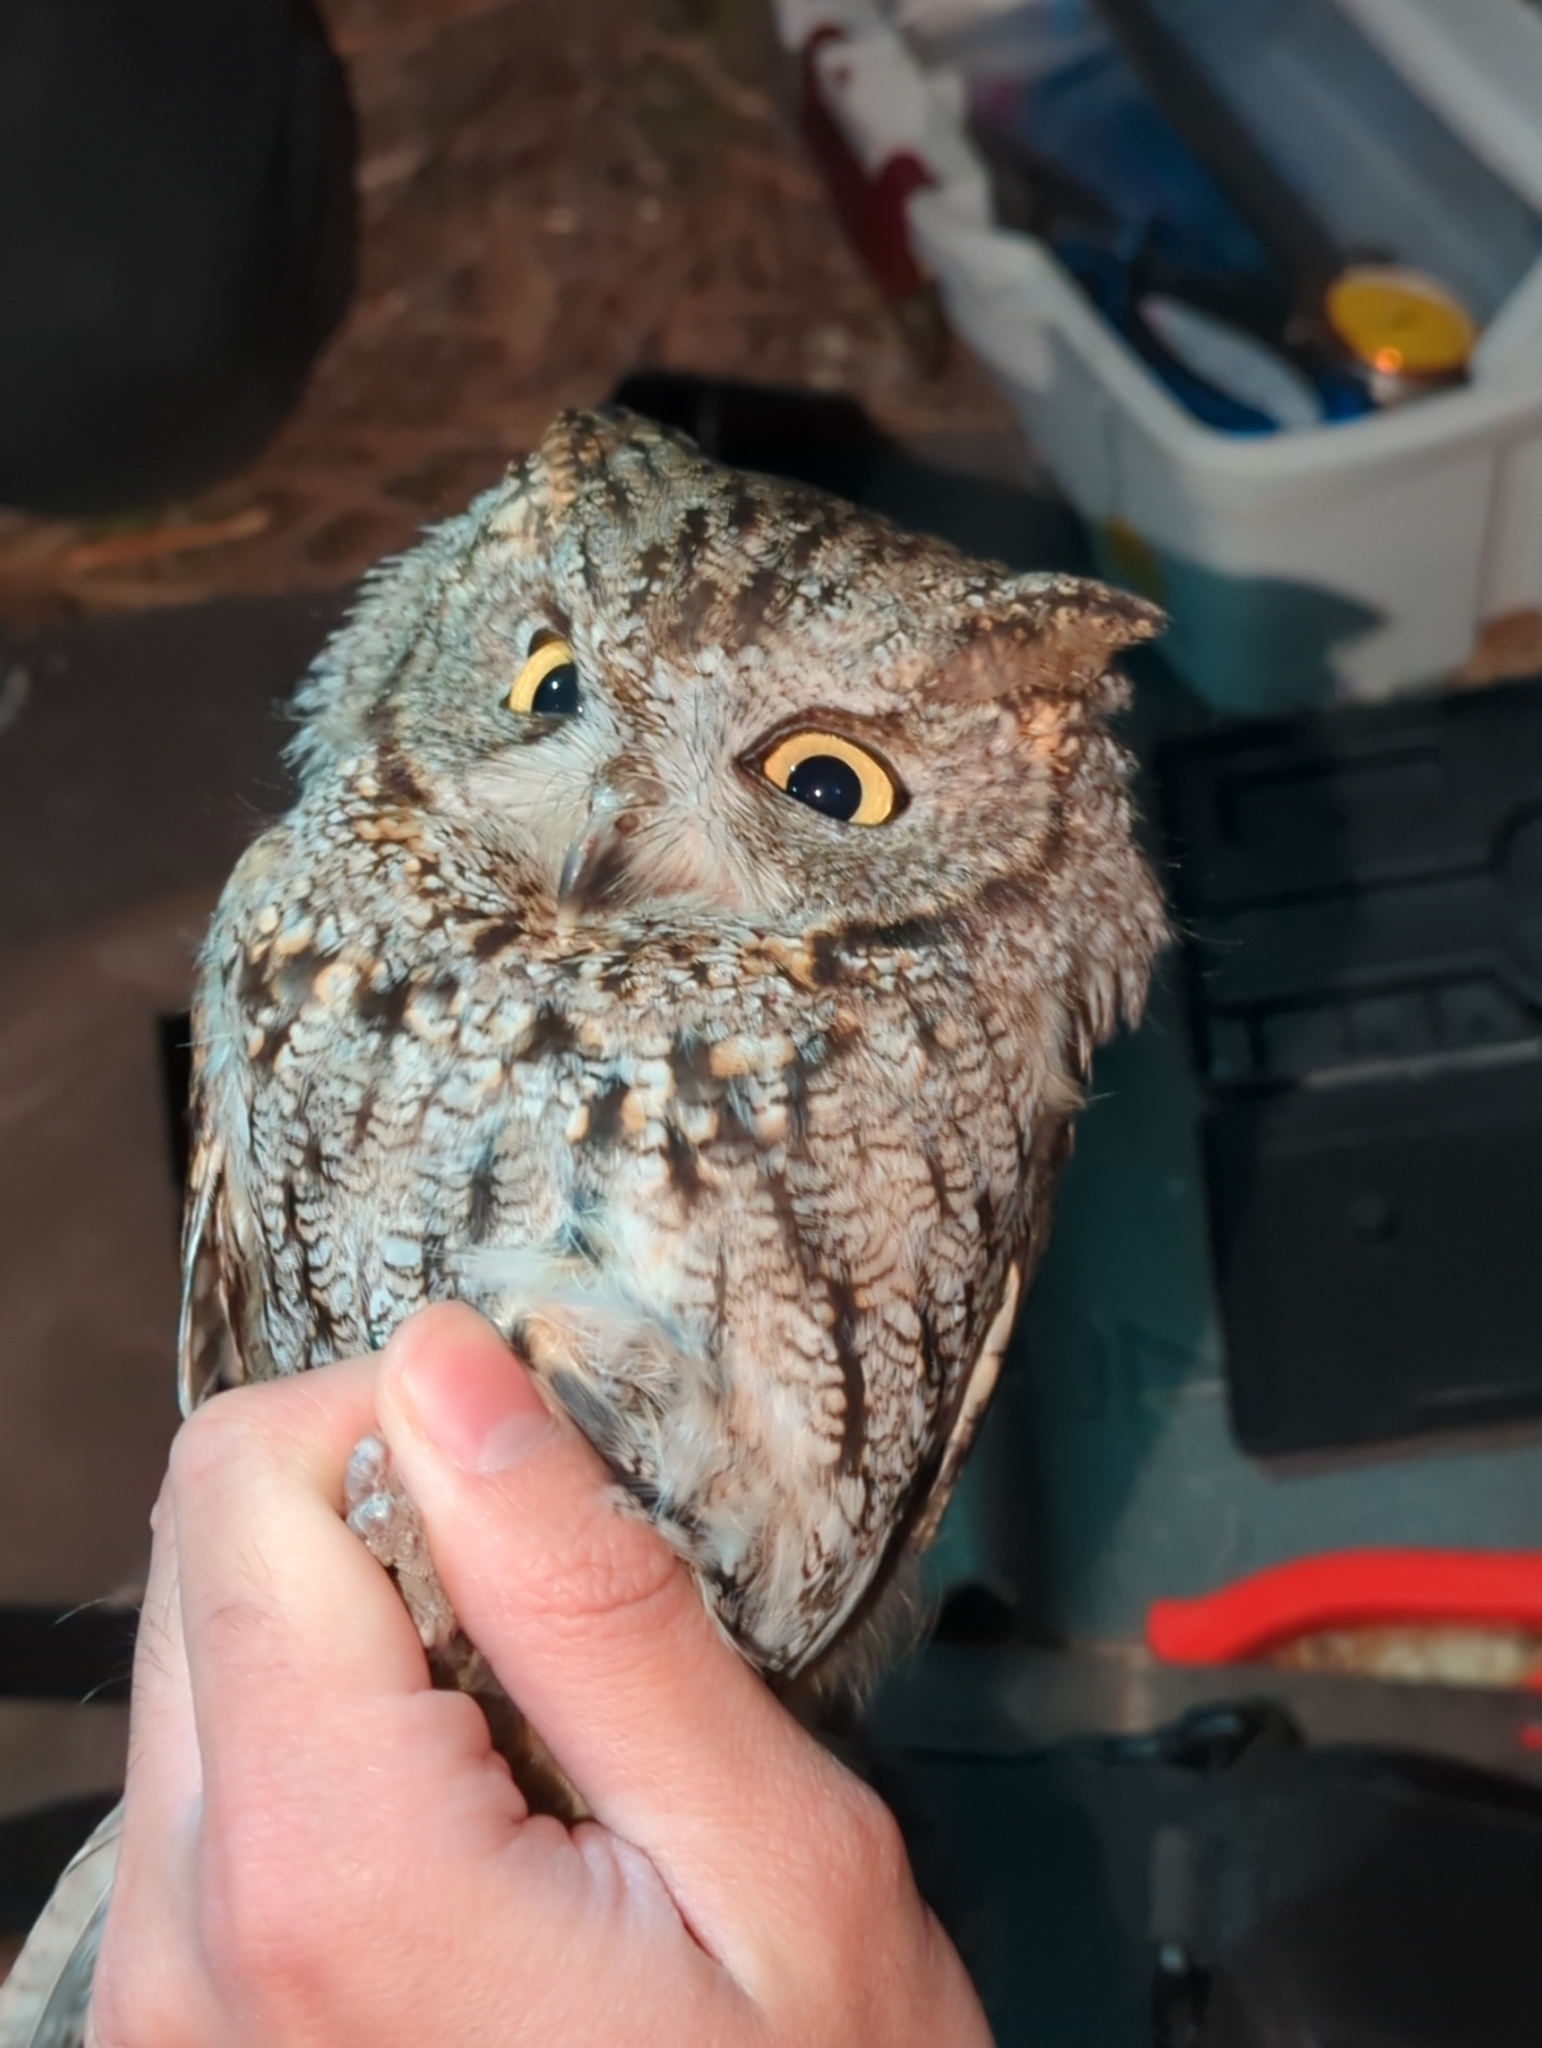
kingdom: Animalia
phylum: Chordata
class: Aves
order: Strigiformes
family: Strigidae
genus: Megascops
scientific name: Megascops kennicottii
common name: Western screech-owl
